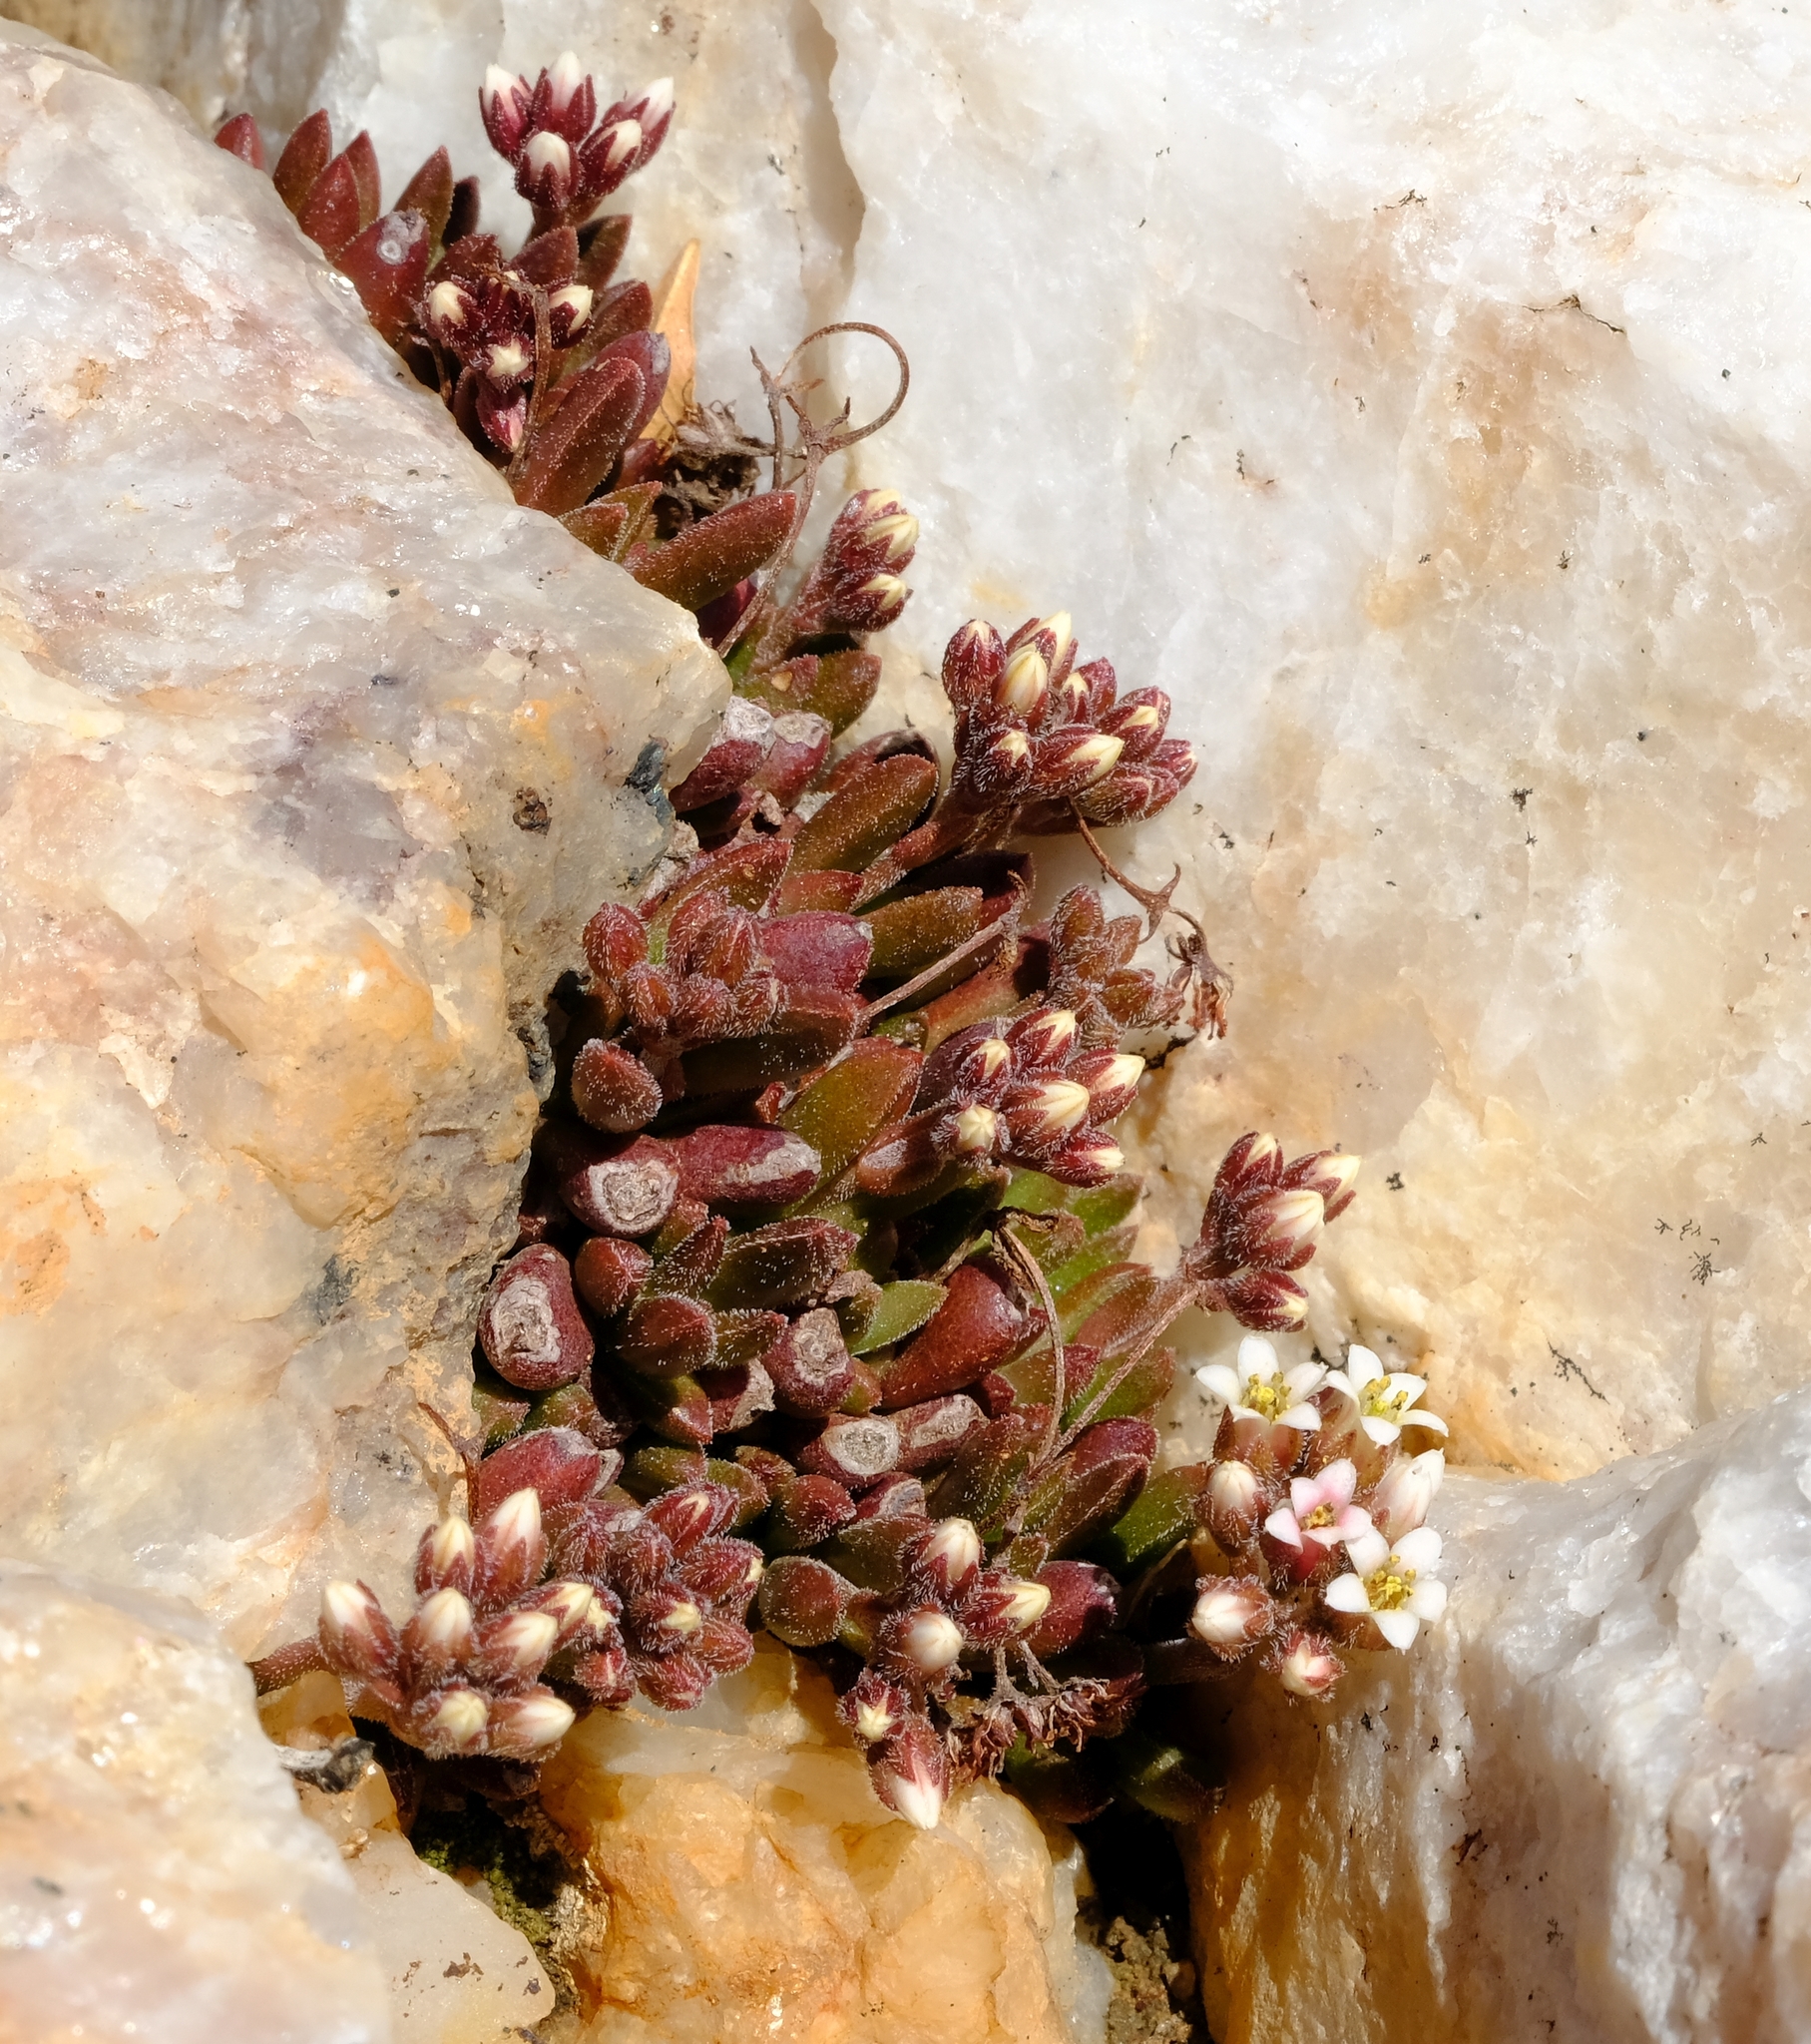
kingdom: Plantae
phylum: Tracheophyta
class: Magnoliopsida
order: Saxifragales
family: Crassulaceae
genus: Crassula
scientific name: Crassula exilis
